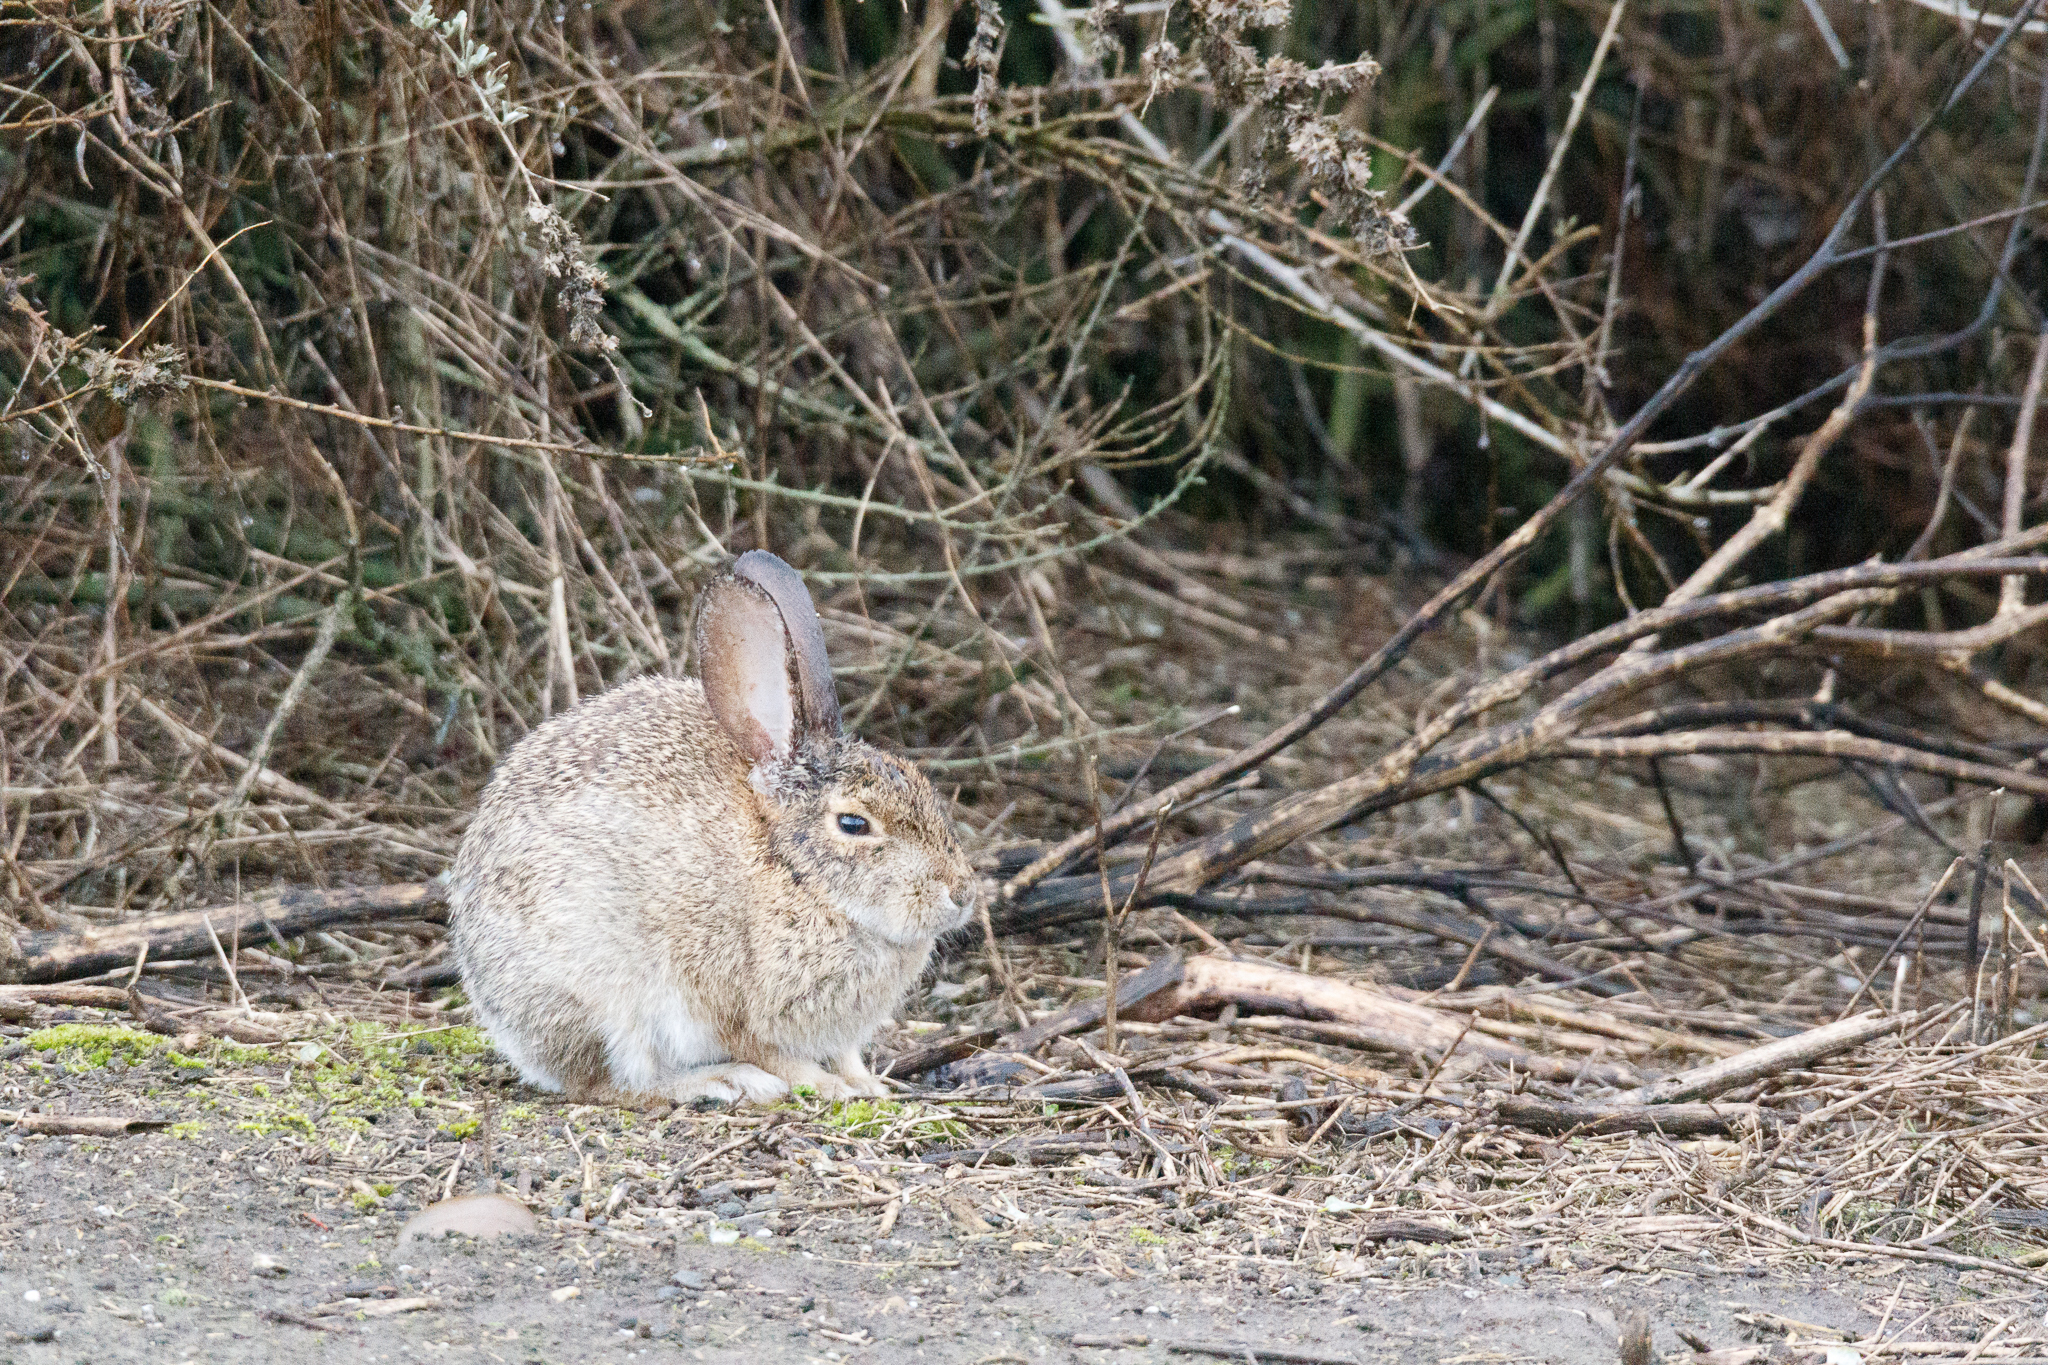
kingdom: Animalia
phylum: Chordata
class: Mammalia
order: Lagomorpha
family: Leporidae
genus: Sylvilagus
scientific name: Sylvilagus audubonii
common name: Desert cottontail
